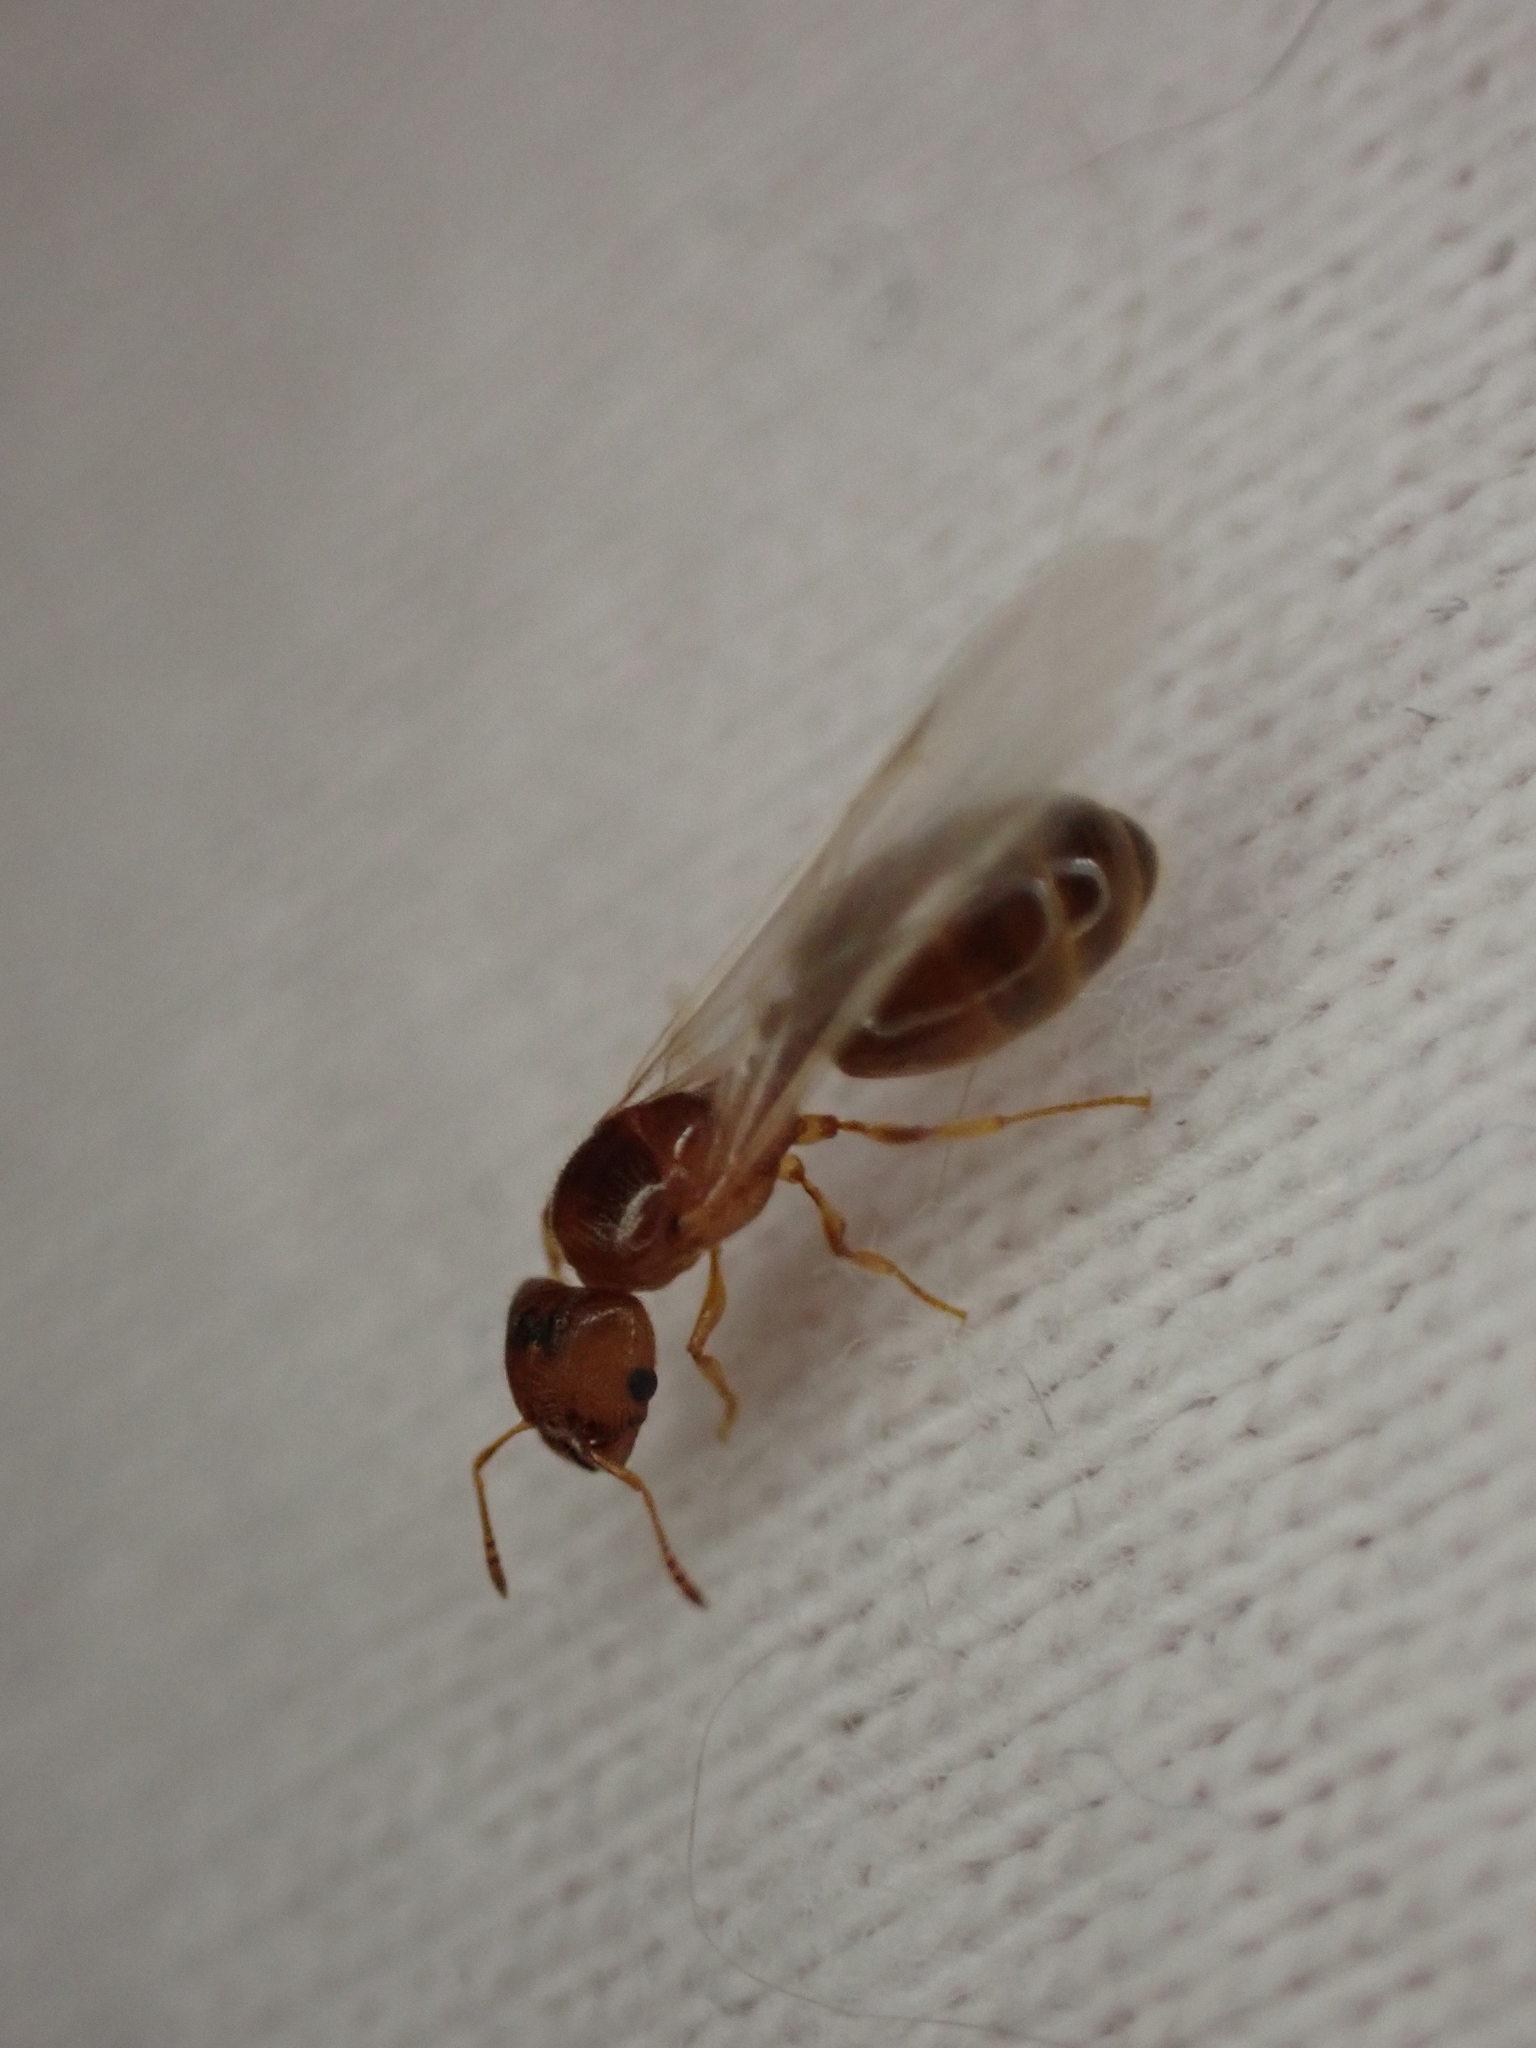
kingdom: Animalia
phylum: Arthropoda
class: Insecta
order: Hymenoptera
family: Formicidae
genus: Pheidole
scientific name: Pheidole bicarinata
